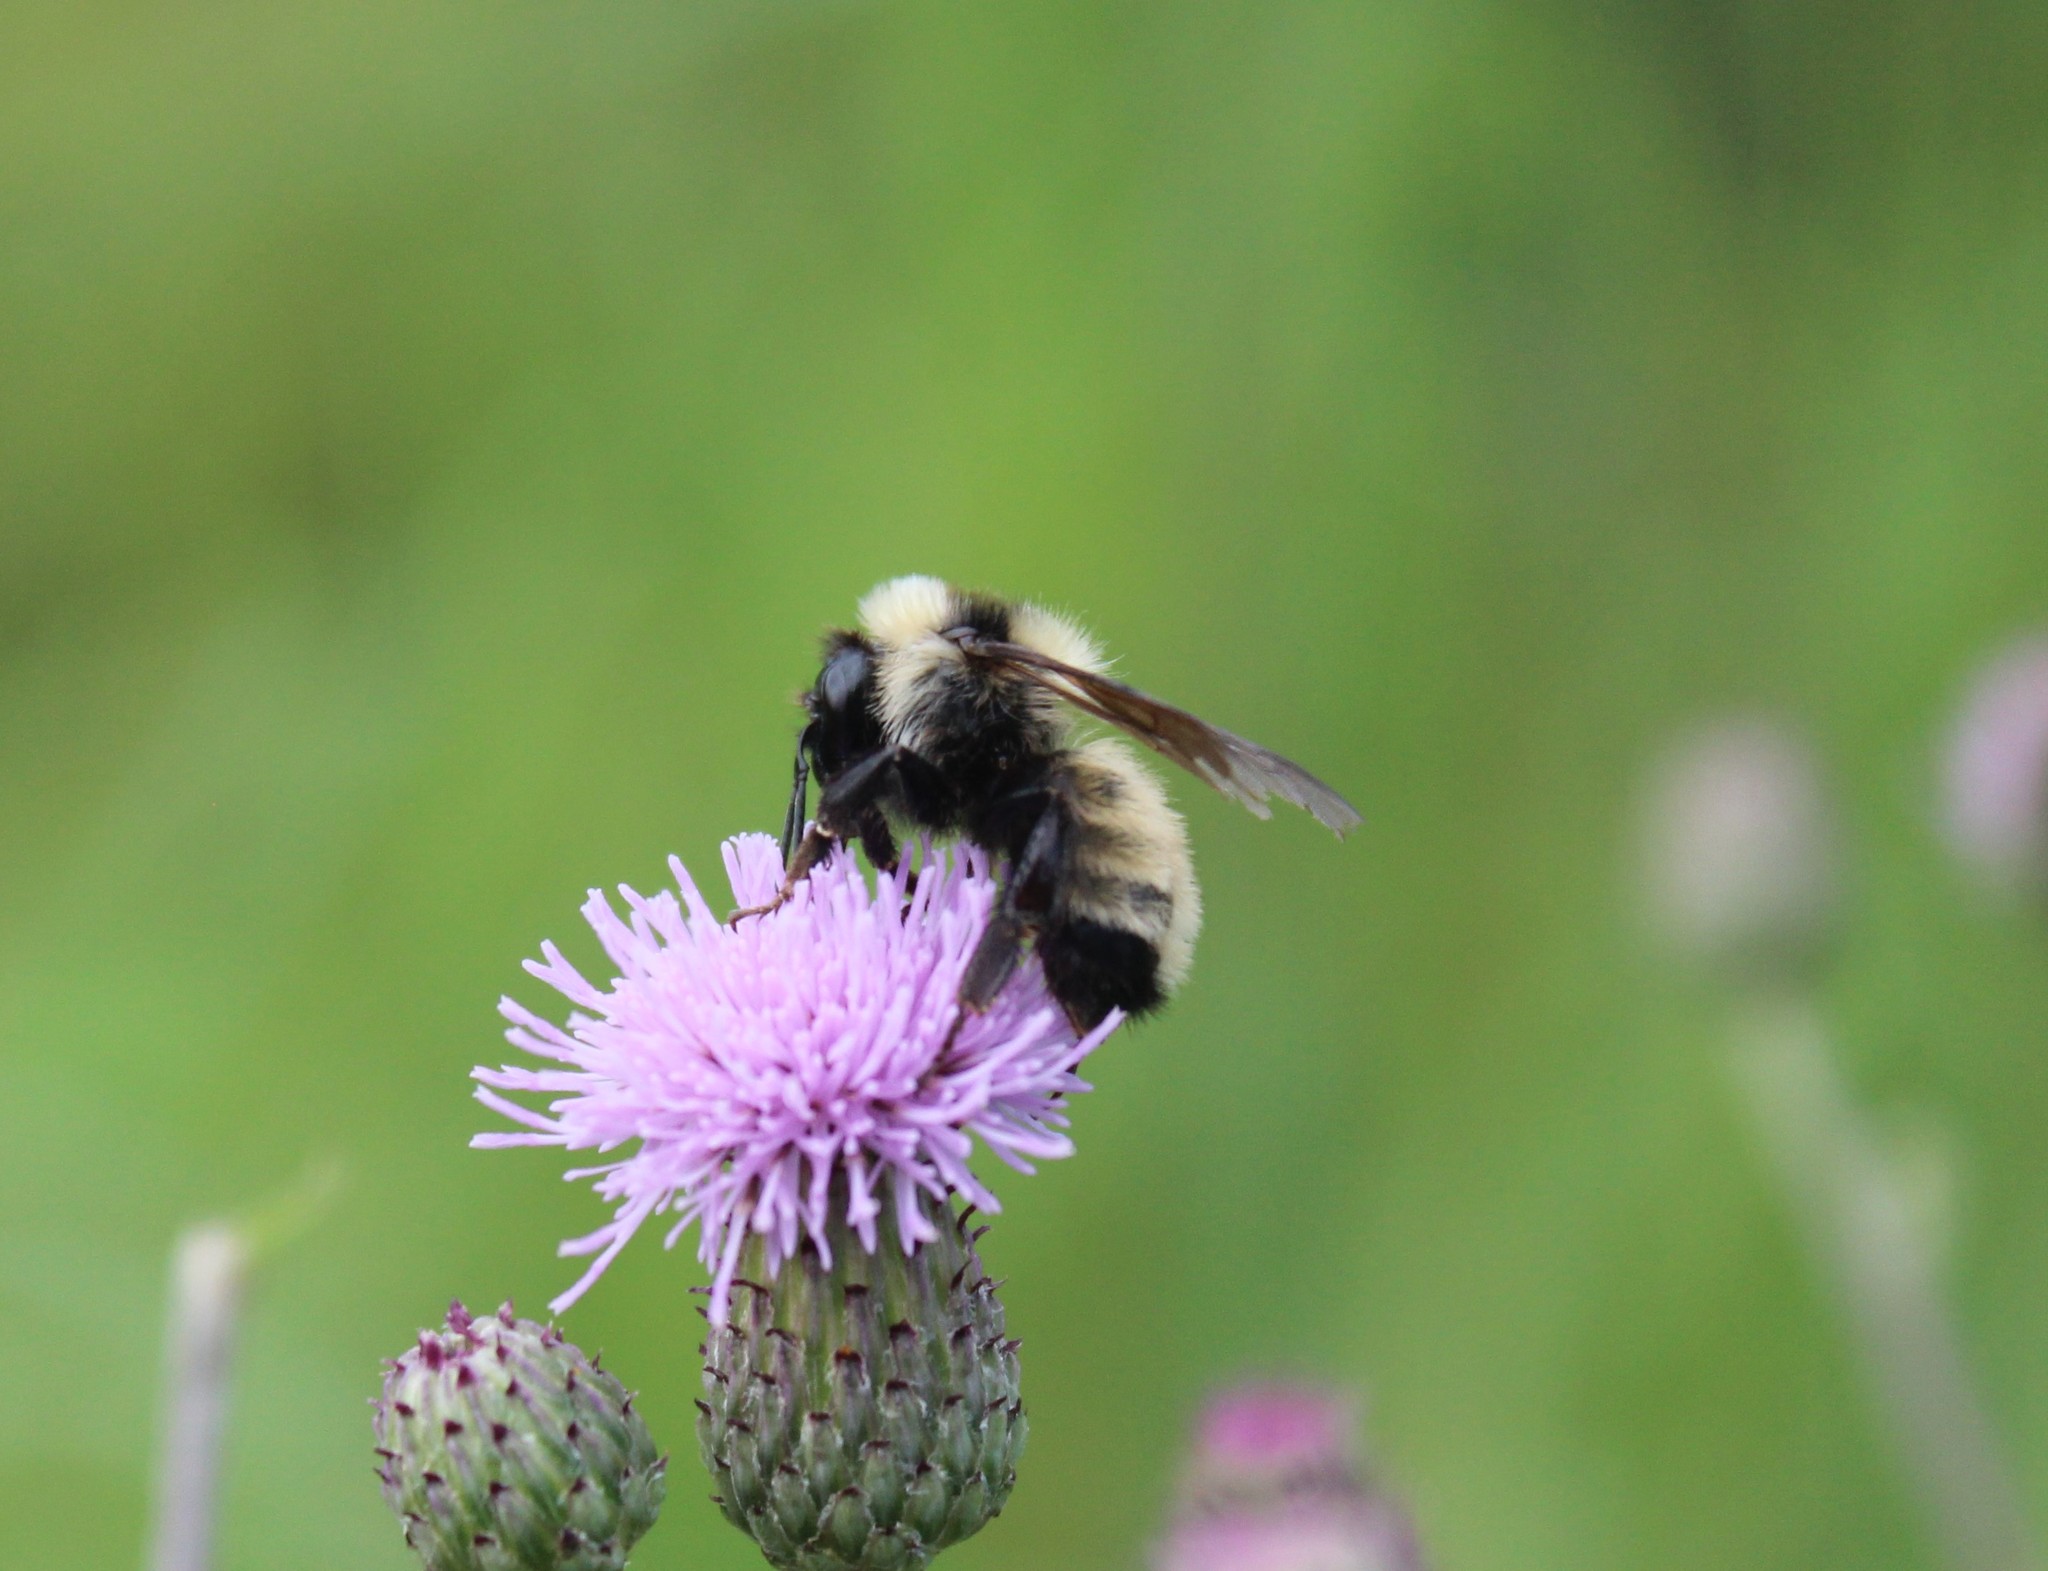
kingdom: Animalia
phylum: Arthropoda
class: Insecta
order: Hymenoptera
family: Apidae
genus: Bombus
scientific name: Bombus fervidus
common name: Yellow bumble bee
